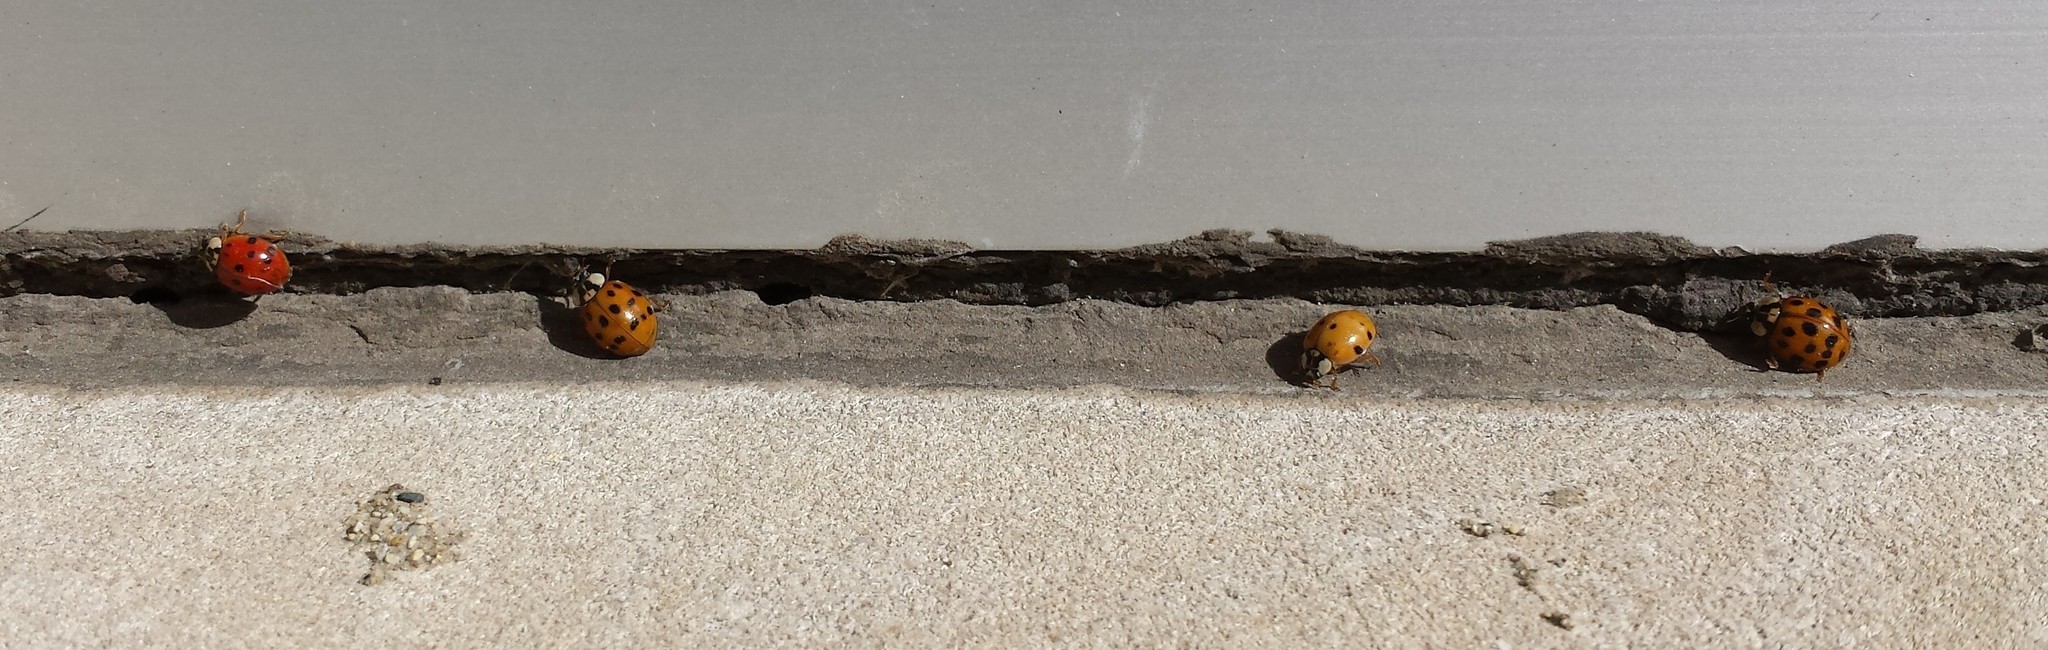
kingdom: Animalia
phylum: Arthropoda
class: Insecta
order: Coleoptera
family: Coccinellidae
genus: Harmonia
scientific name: Harmonia axyridis
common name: Harlequin ladybird
